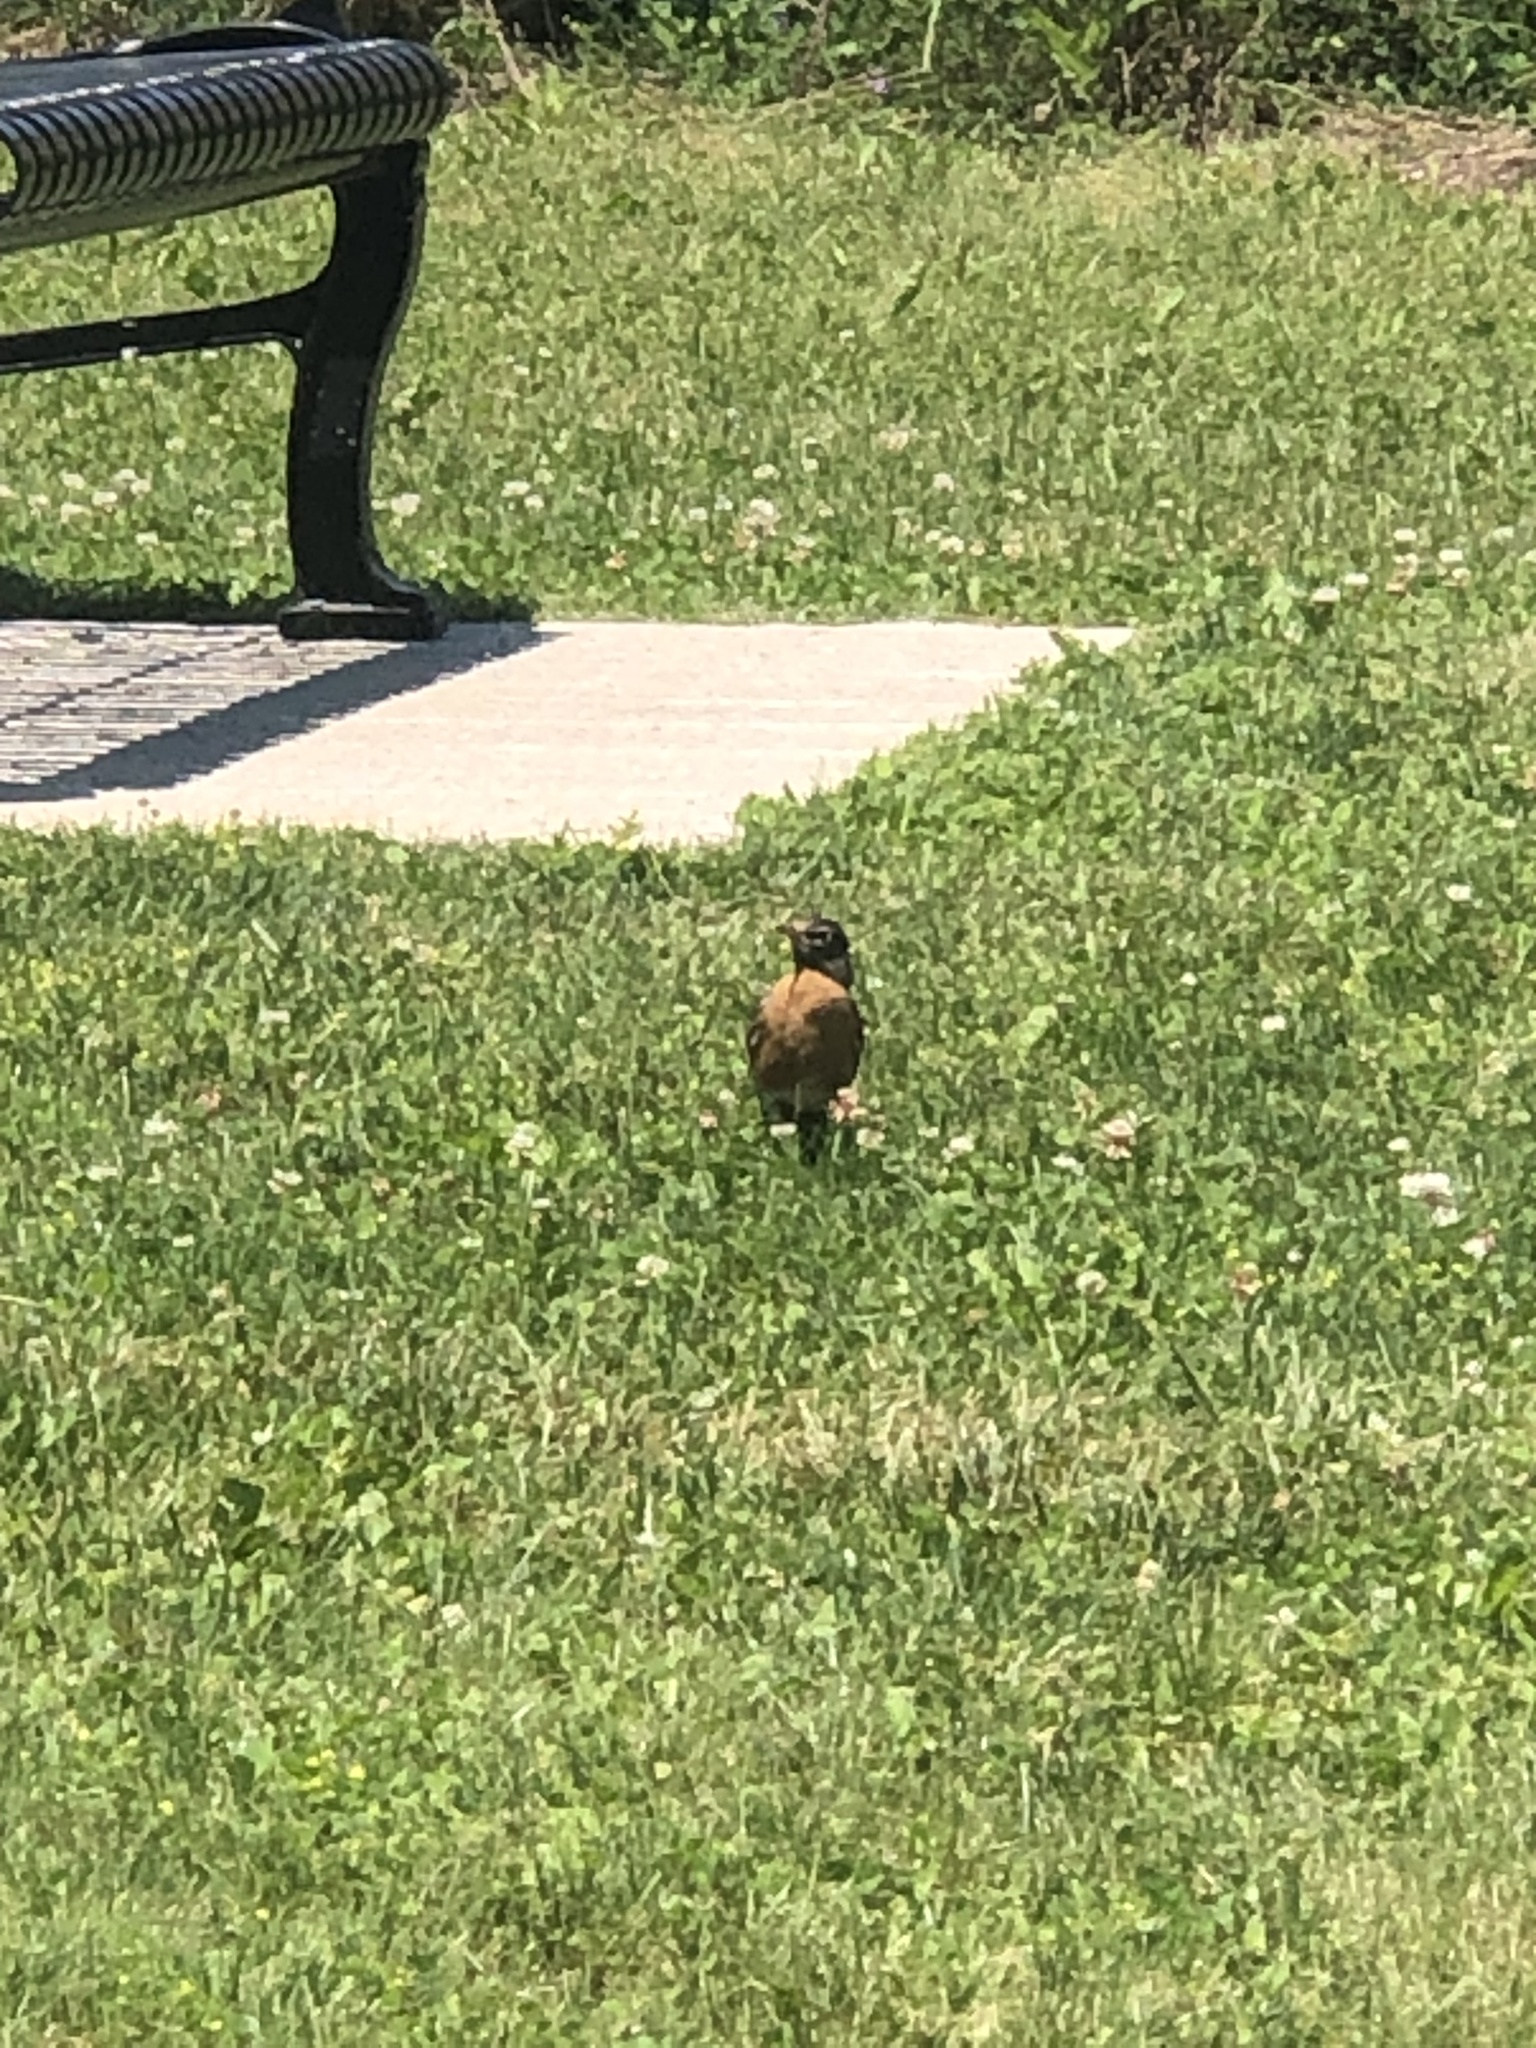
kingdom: Animalia
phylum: Chordata
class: Aves
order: Passeriformes
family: Turdidae
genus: Turdus
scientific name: Turdus migratorius
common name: American robin
